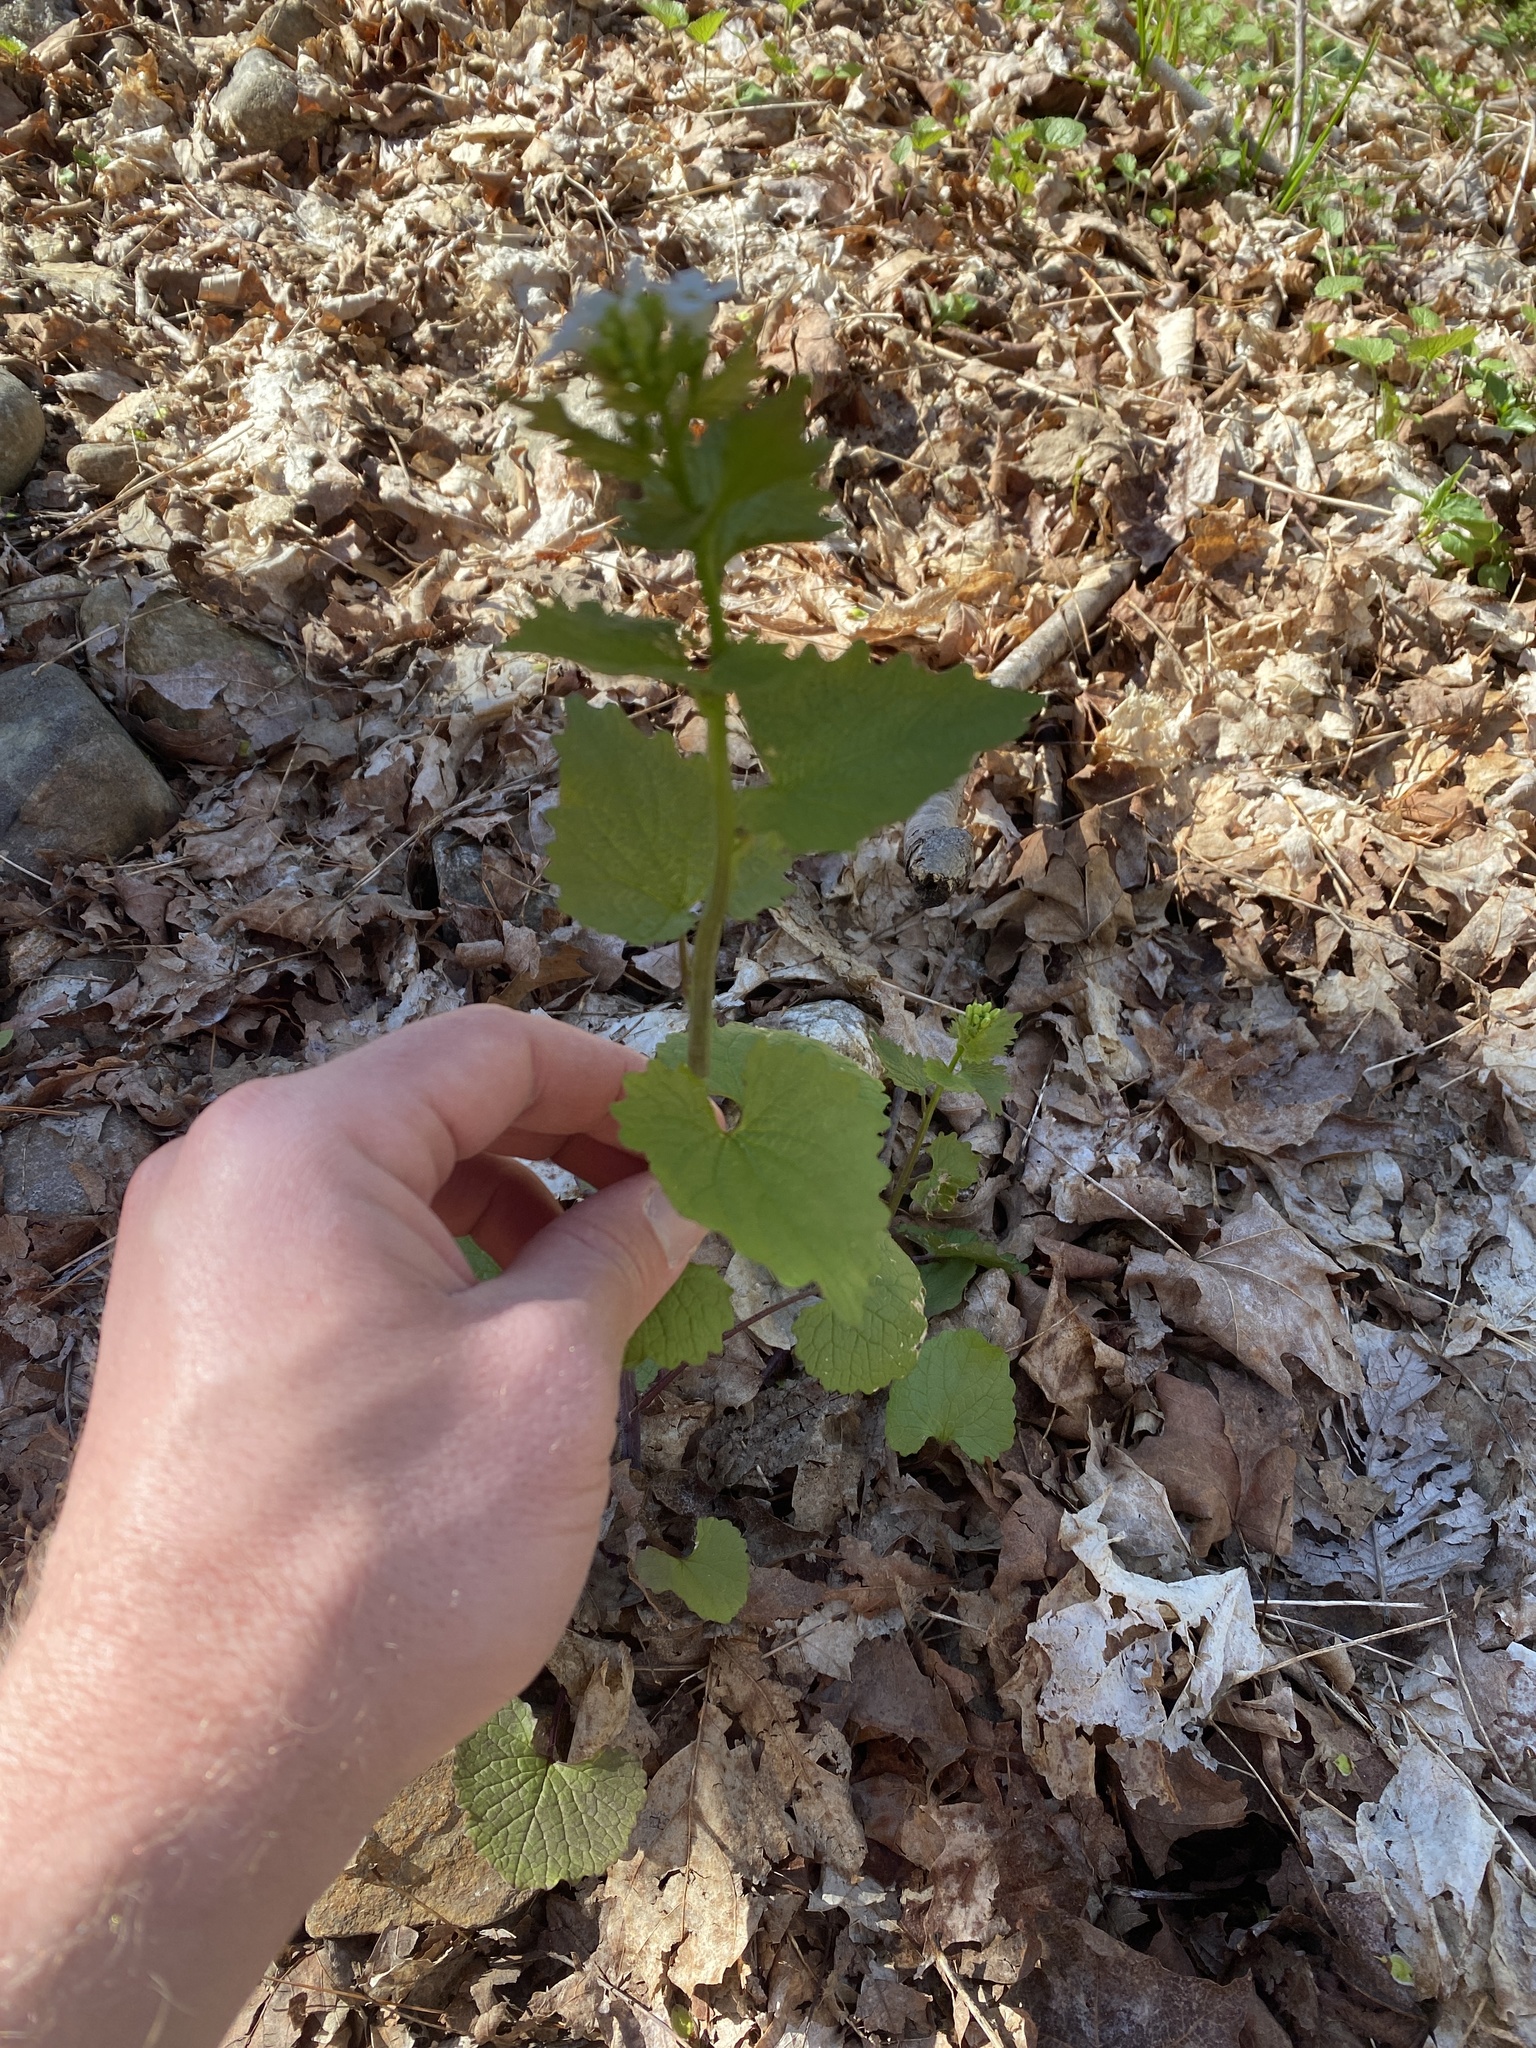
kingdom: Plantae
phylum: Tracheophyta
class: Magnoliopsida
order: Brassicales
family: Brassicaceae
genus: Alliaria
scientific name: Alliaria petiolata
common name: Garlic mustard
